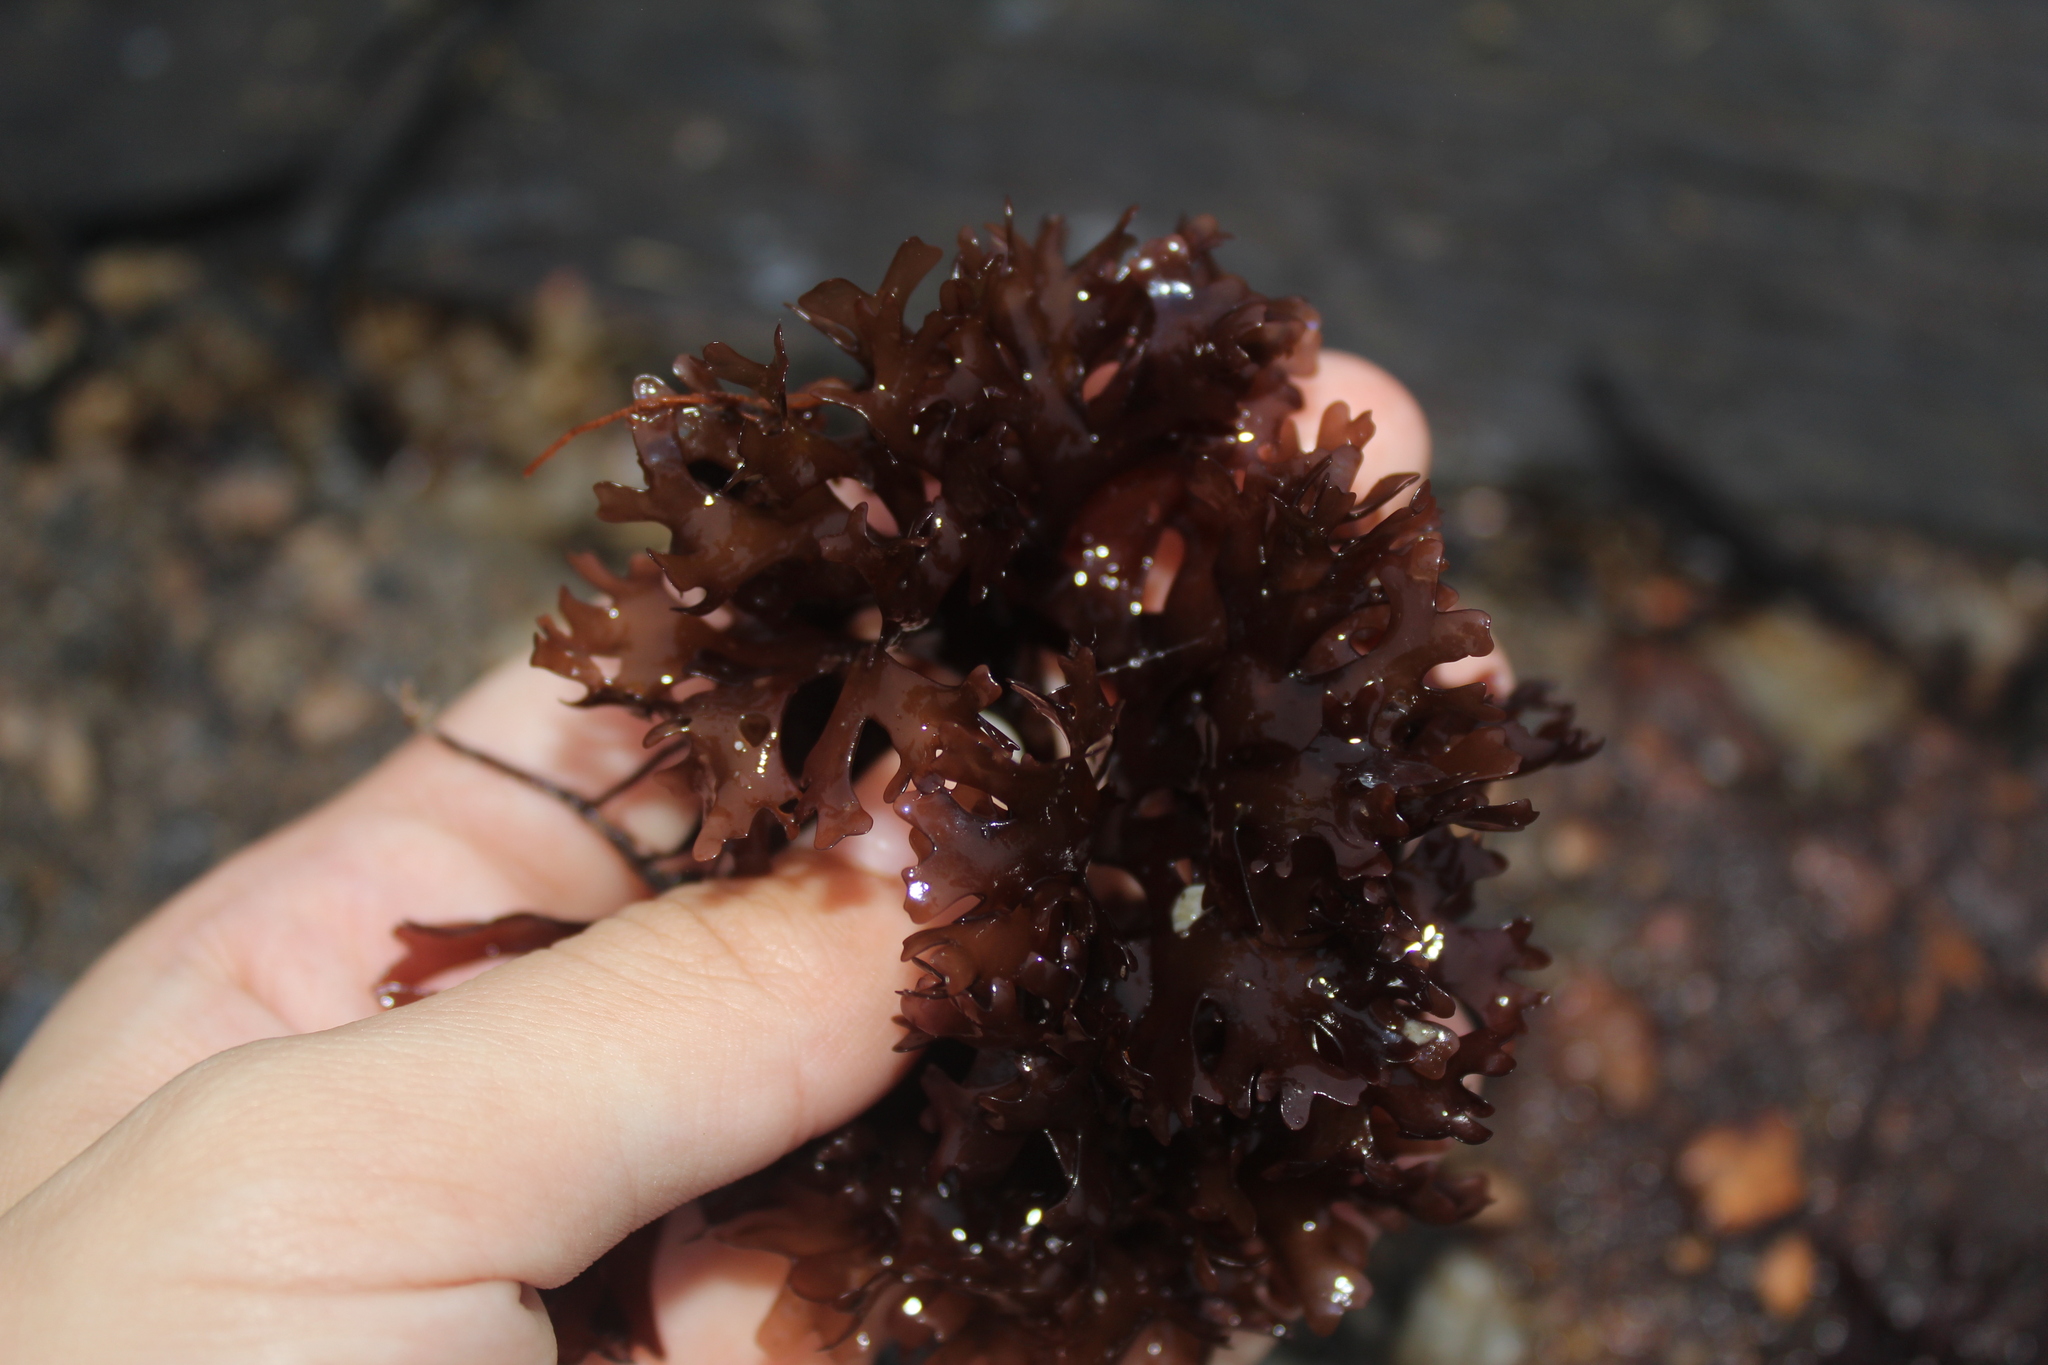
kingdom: Plantae
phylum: Rhodophyta
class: Florideophyceae
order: Gigartinales
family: Gigartinaceae
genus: Chondrus
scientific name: Chondrus crispus
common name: Carrageen
